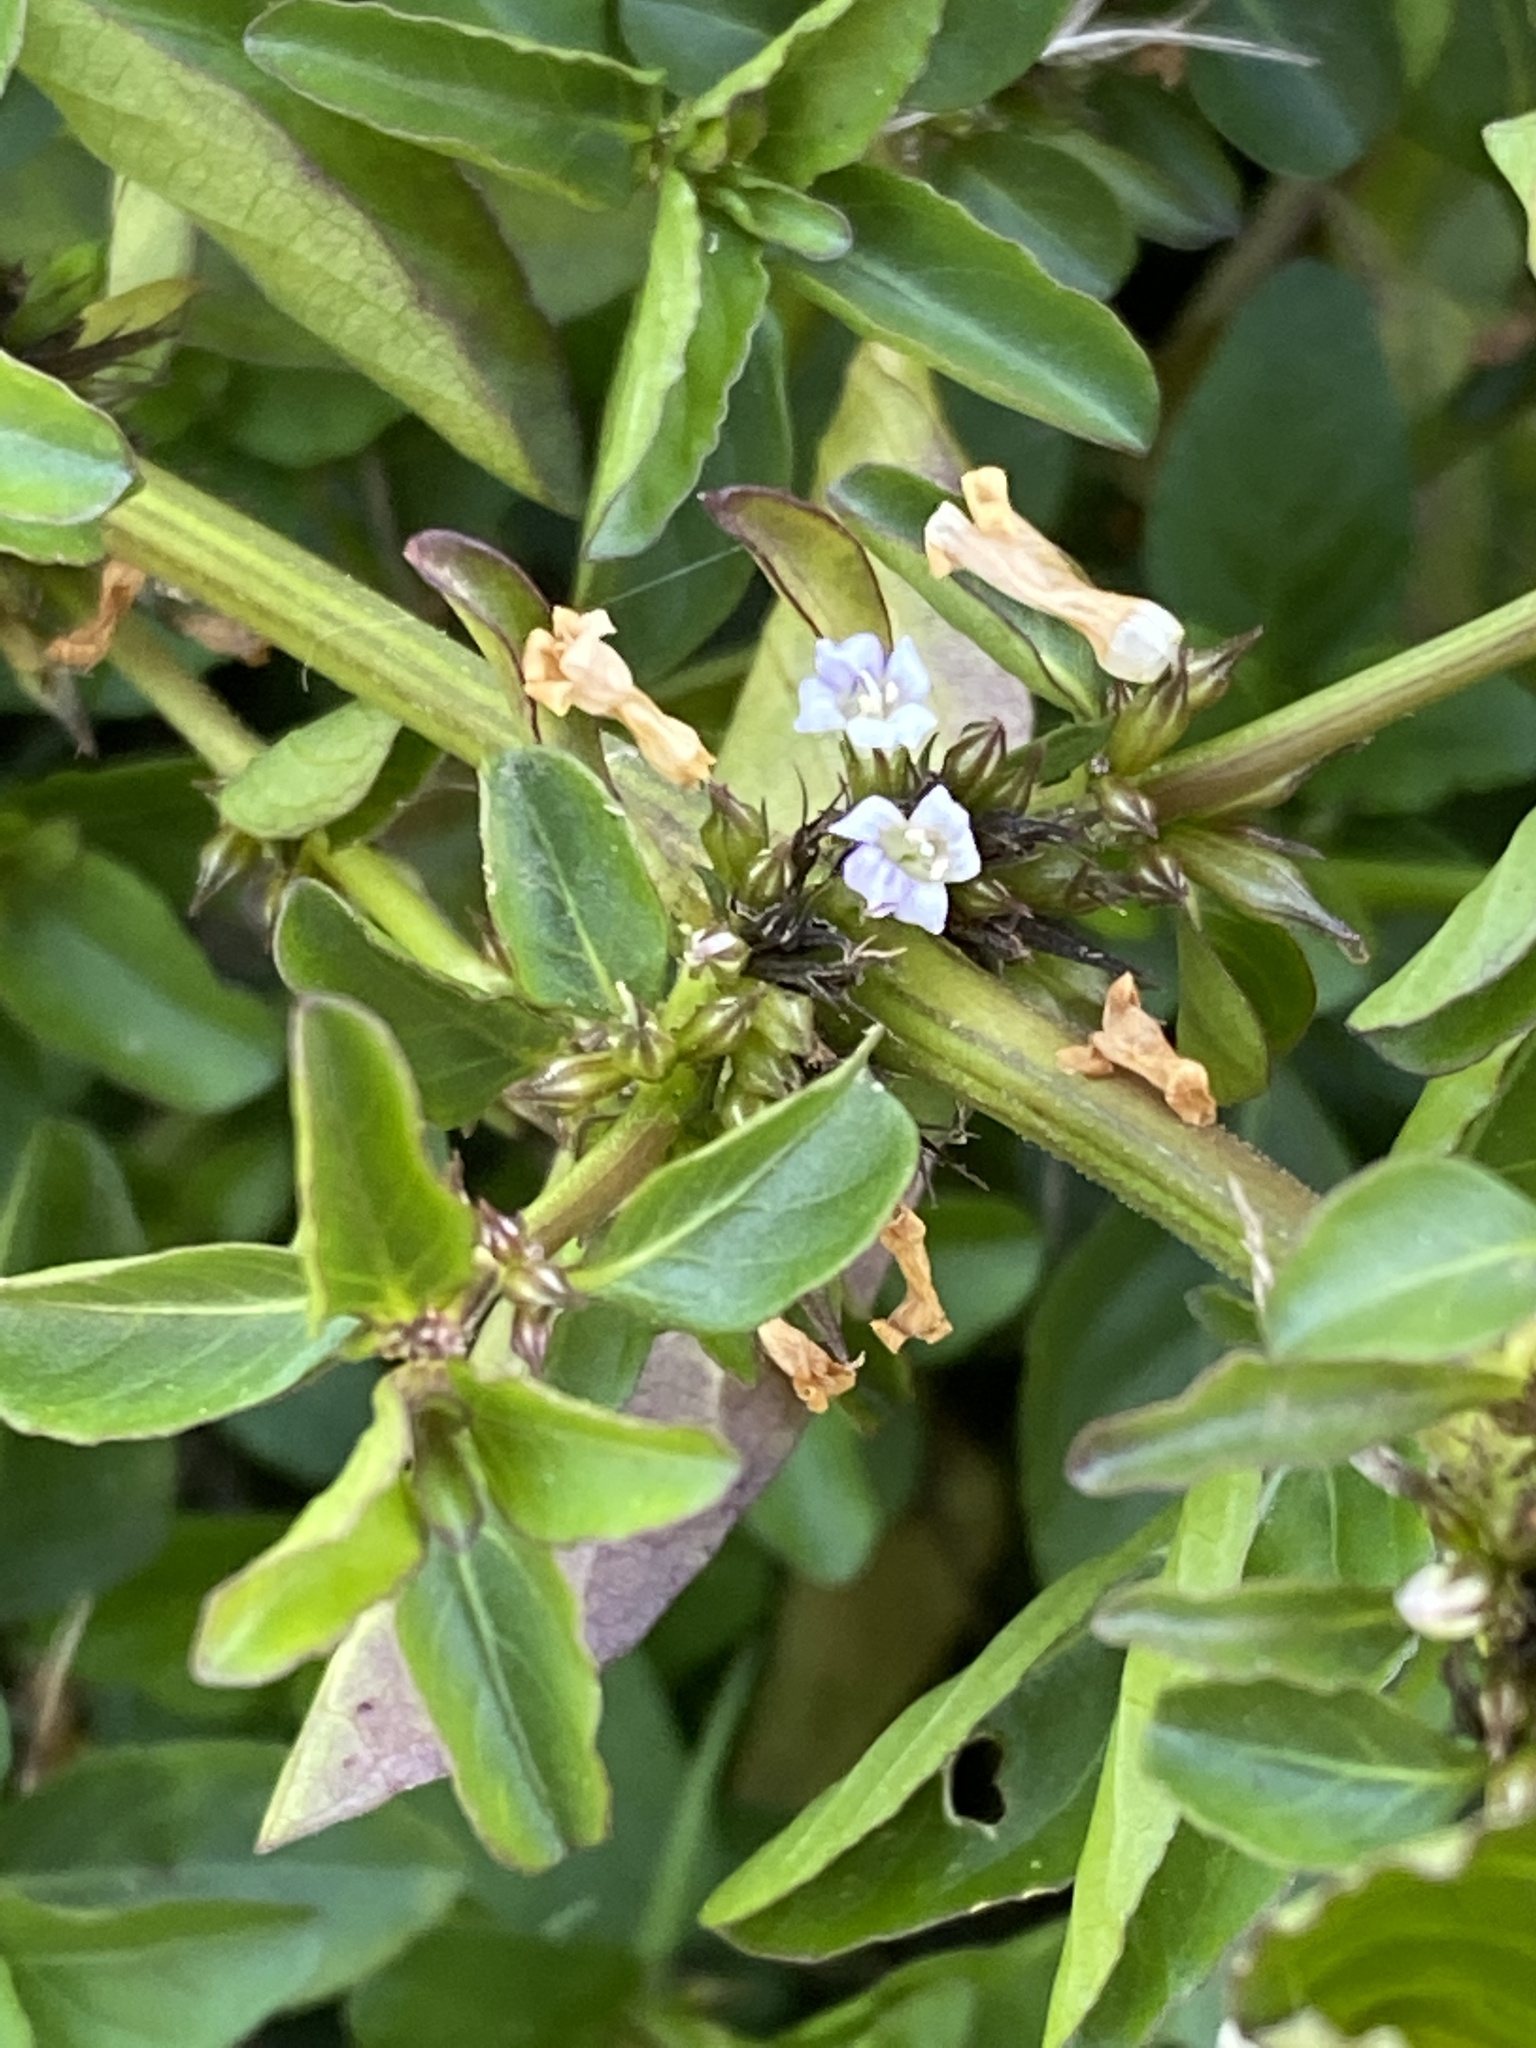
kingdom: Plantae
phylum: Tracheophyta
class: Magnoliopsida
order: Lamiales
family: Acanthaceae
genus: Hygrophila
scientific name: Hygrophila erecta
